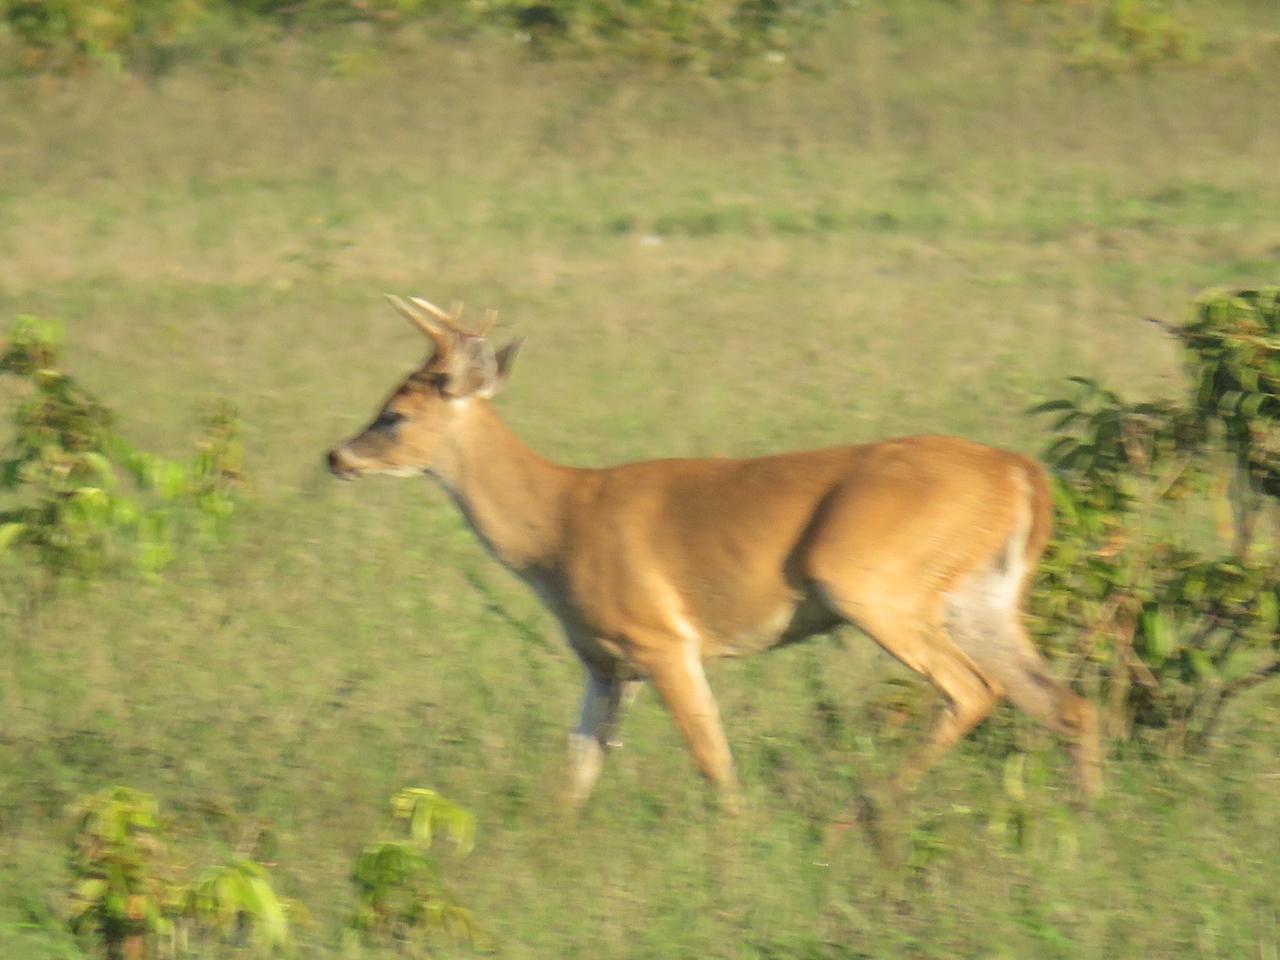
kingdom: Animalia
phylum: Chordata
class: Mammalia
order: Artiodactyla
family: Cervidae
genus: Odocoileus
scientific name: Odocoileus virginianus
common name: White-tailed deer
